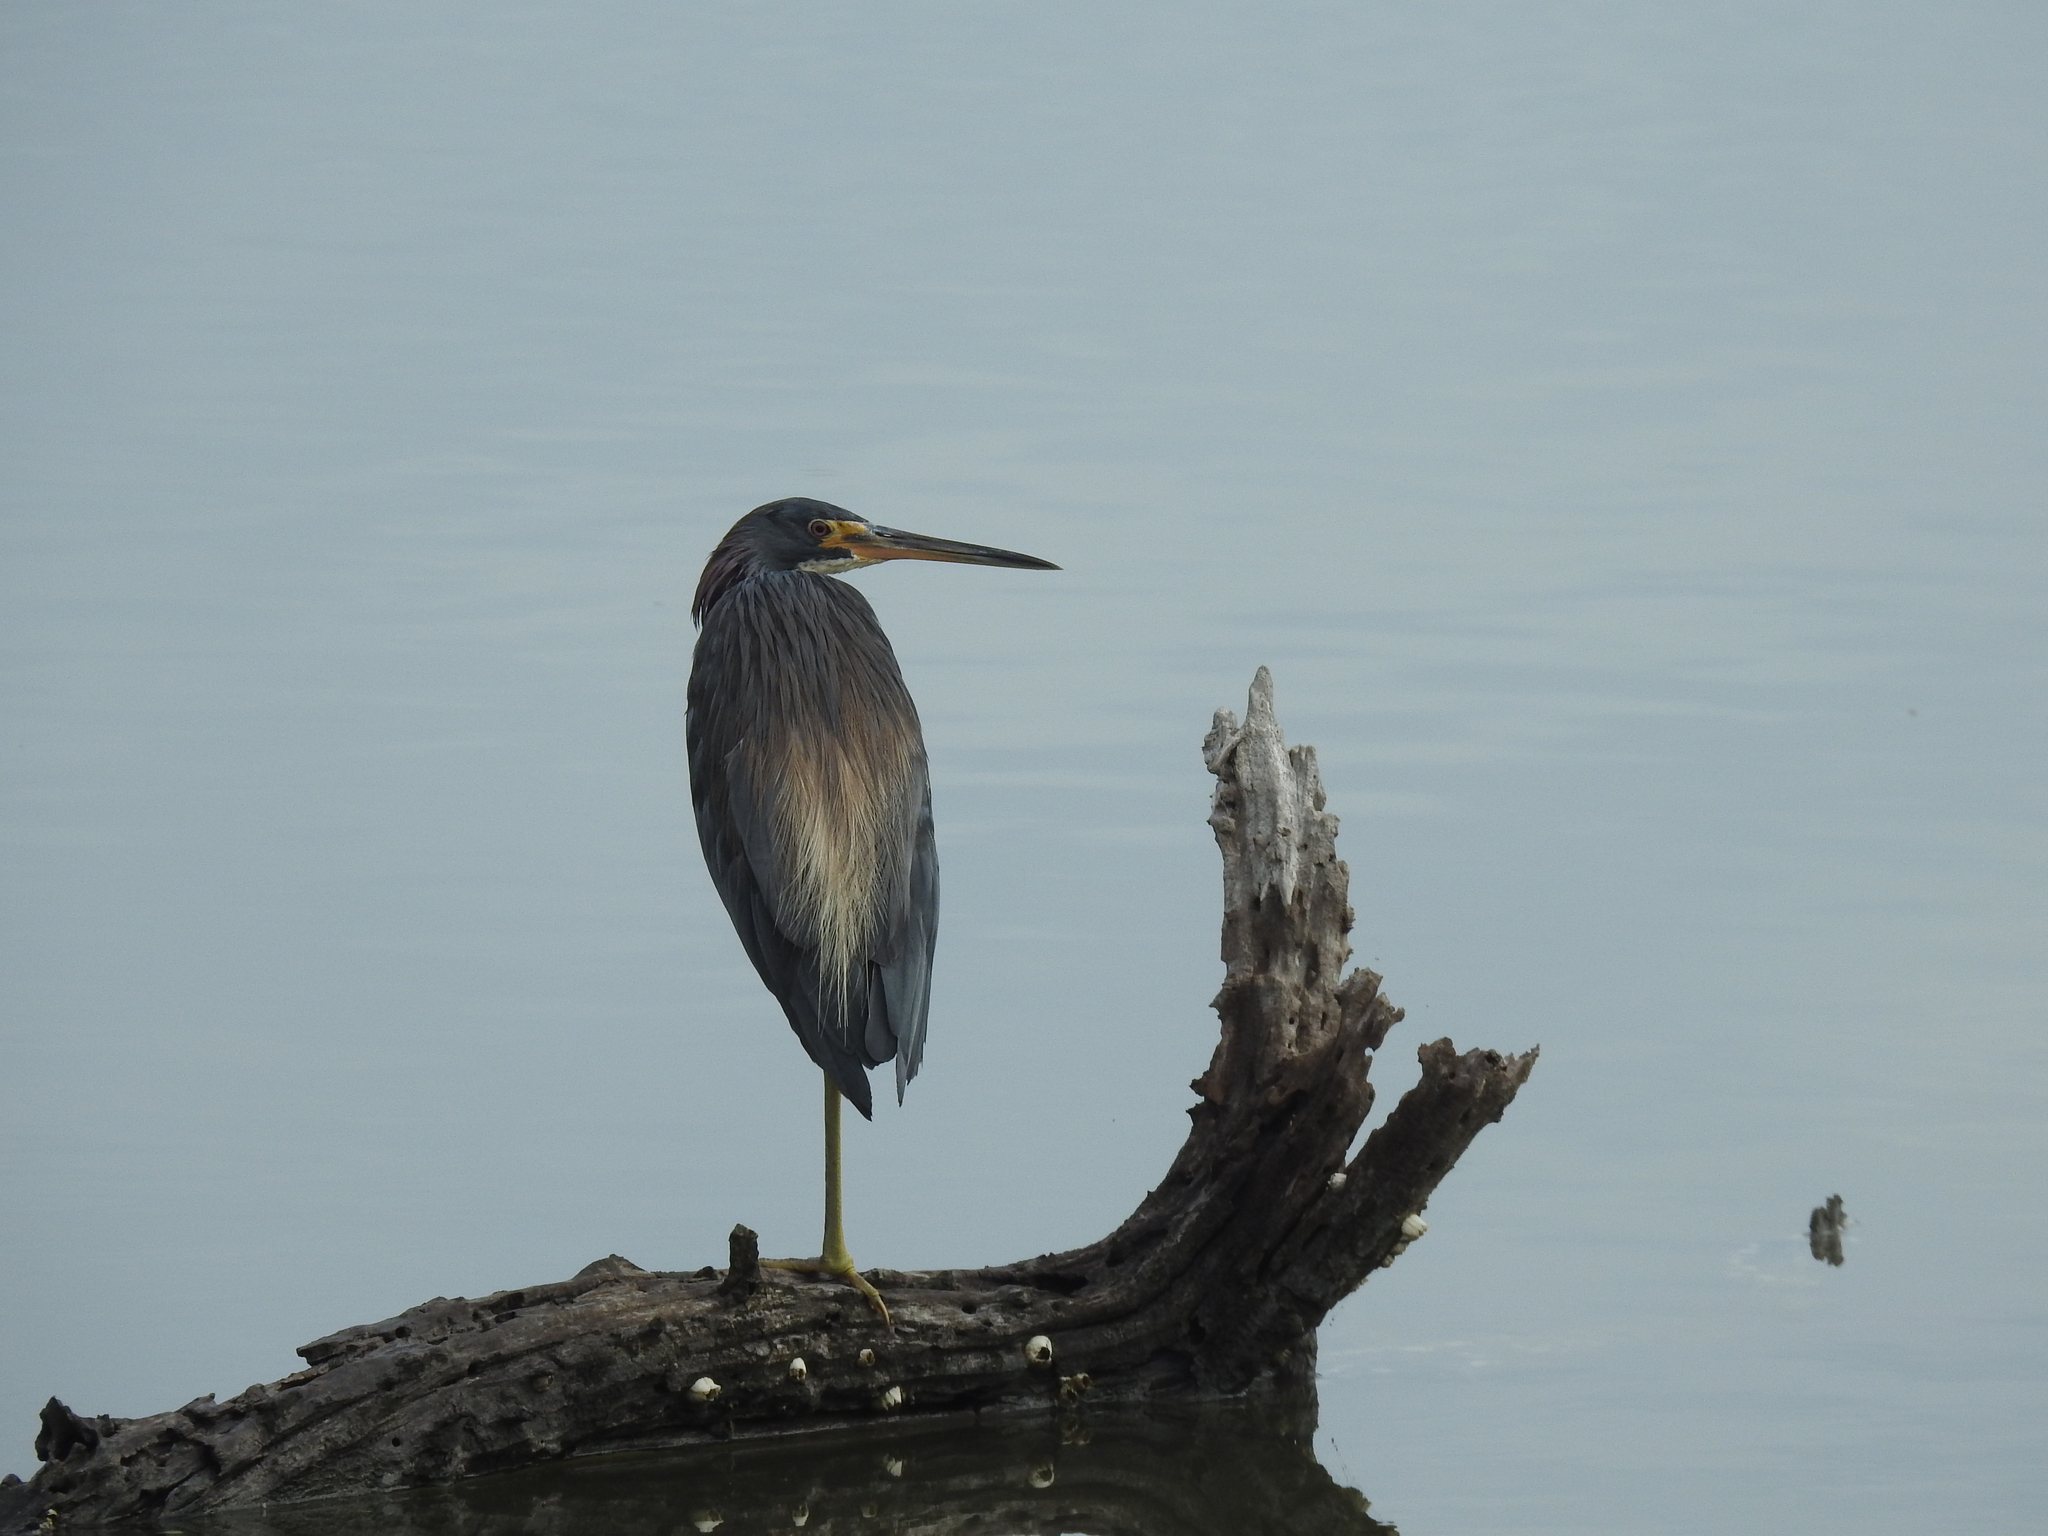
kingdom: Animalia
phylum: Chordata
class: Aves
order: Pelecaniformes
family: Ardeidae
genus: Egretta
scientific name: Egretta tricolor
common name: Tricolored heron
